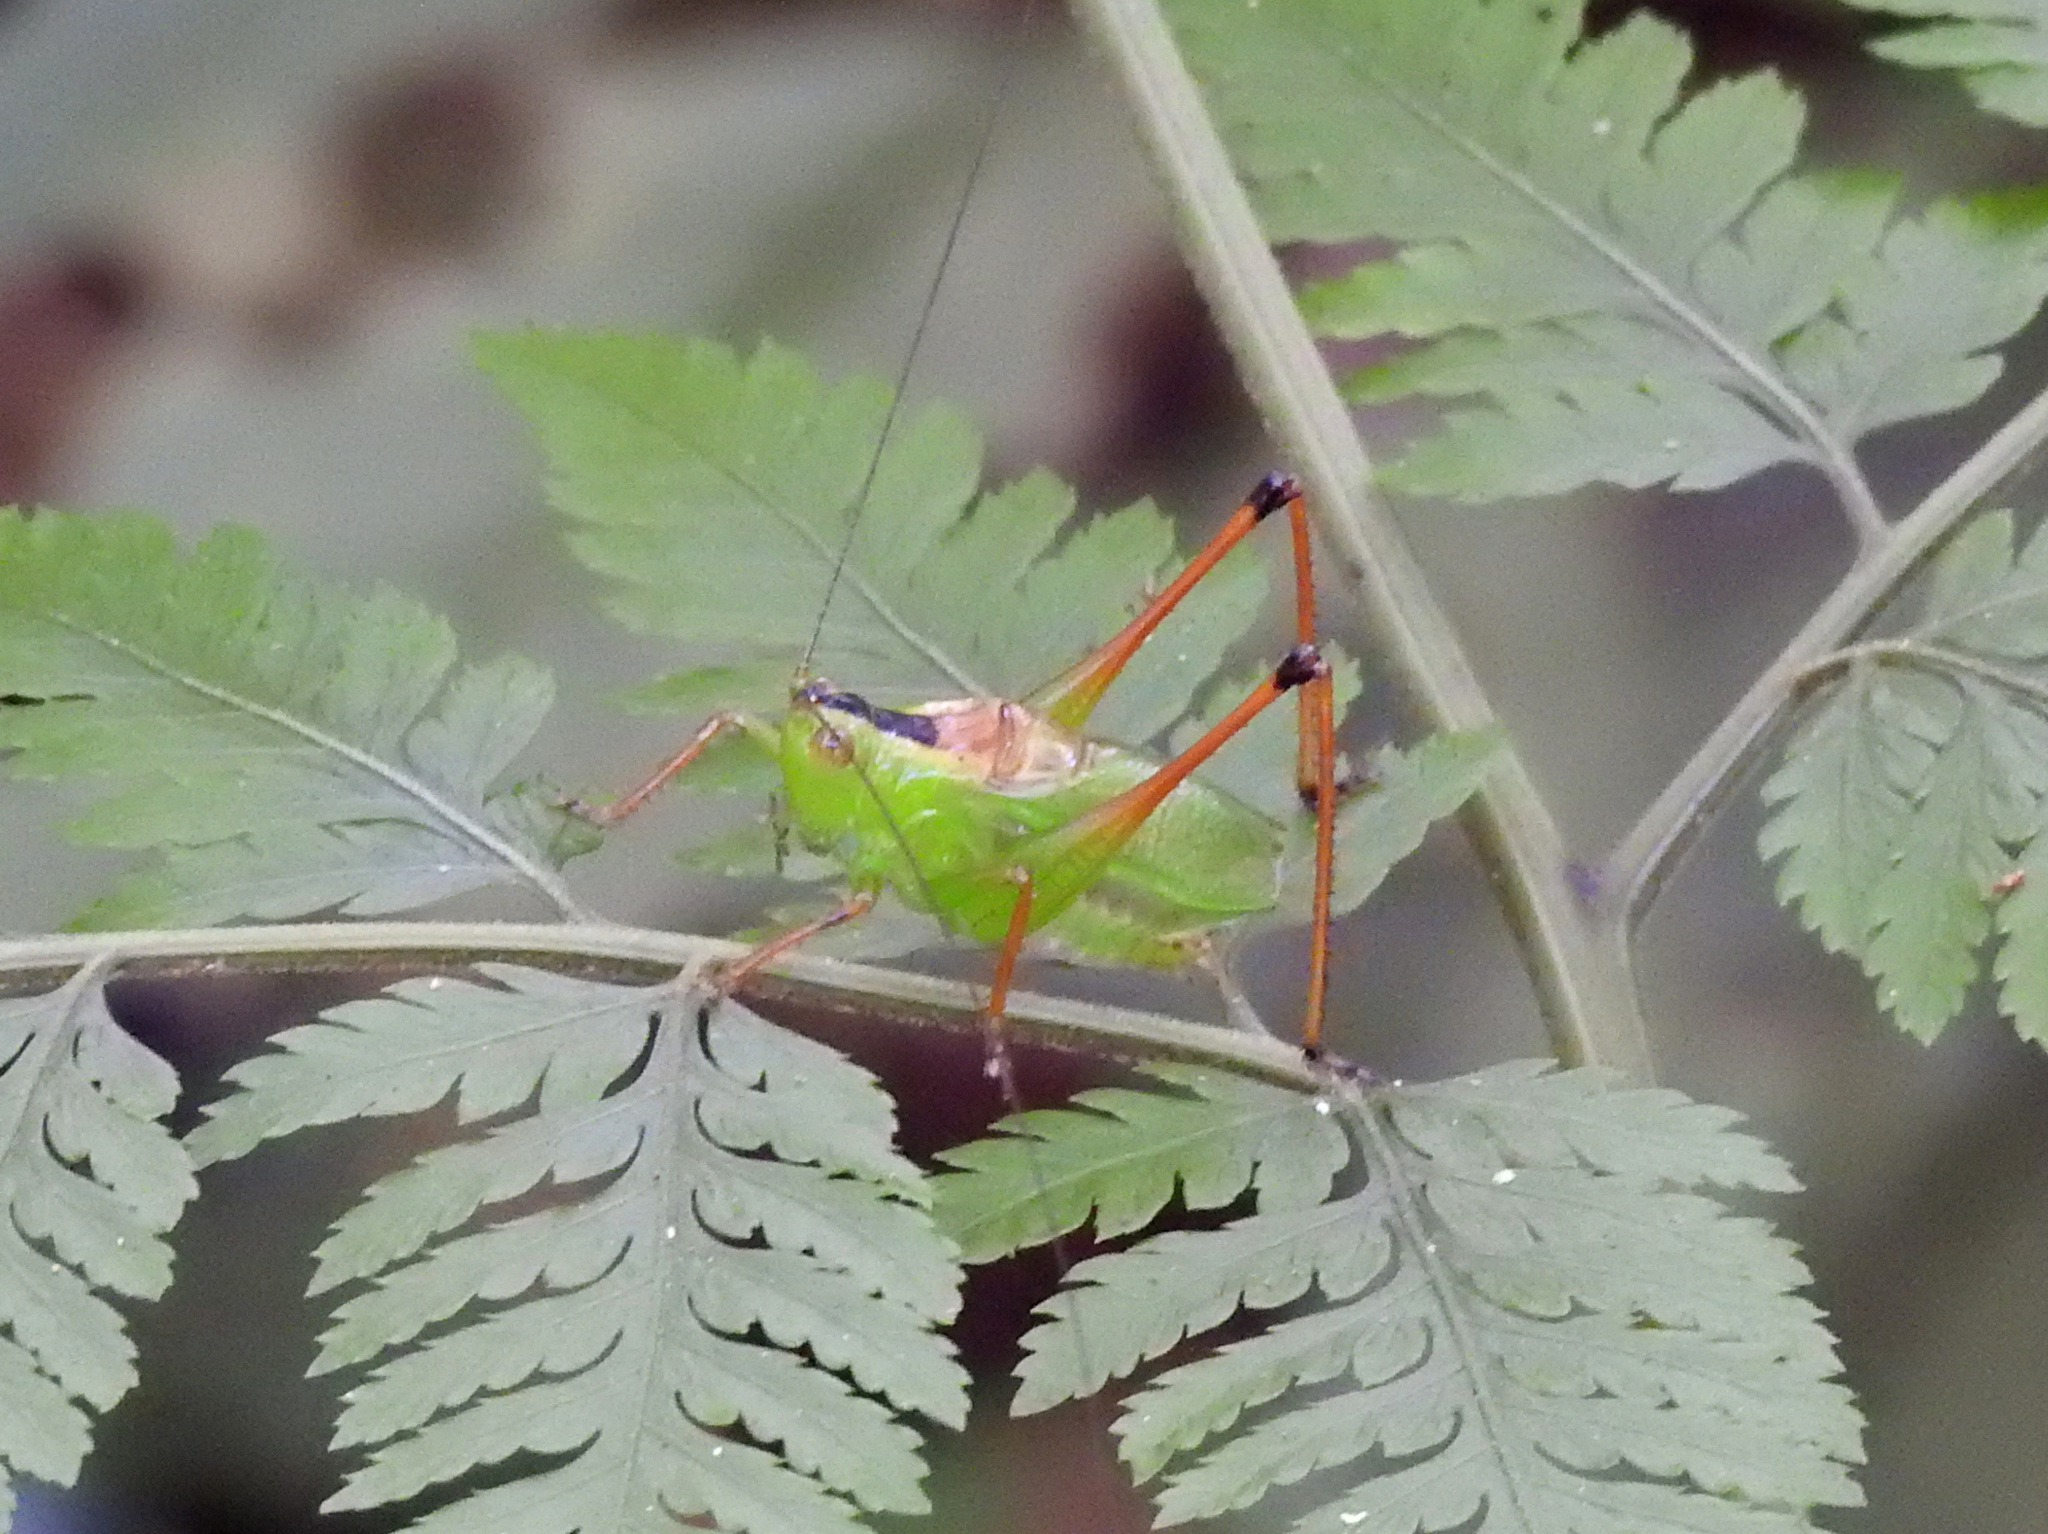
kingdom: Animalia
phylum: Arthropoda
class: Insecta
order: Orthoptera
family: Tettigoniidae
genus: Xiphelimum
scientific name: Xiphelimum amplipennis
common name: Clear-wing meadow katydid
